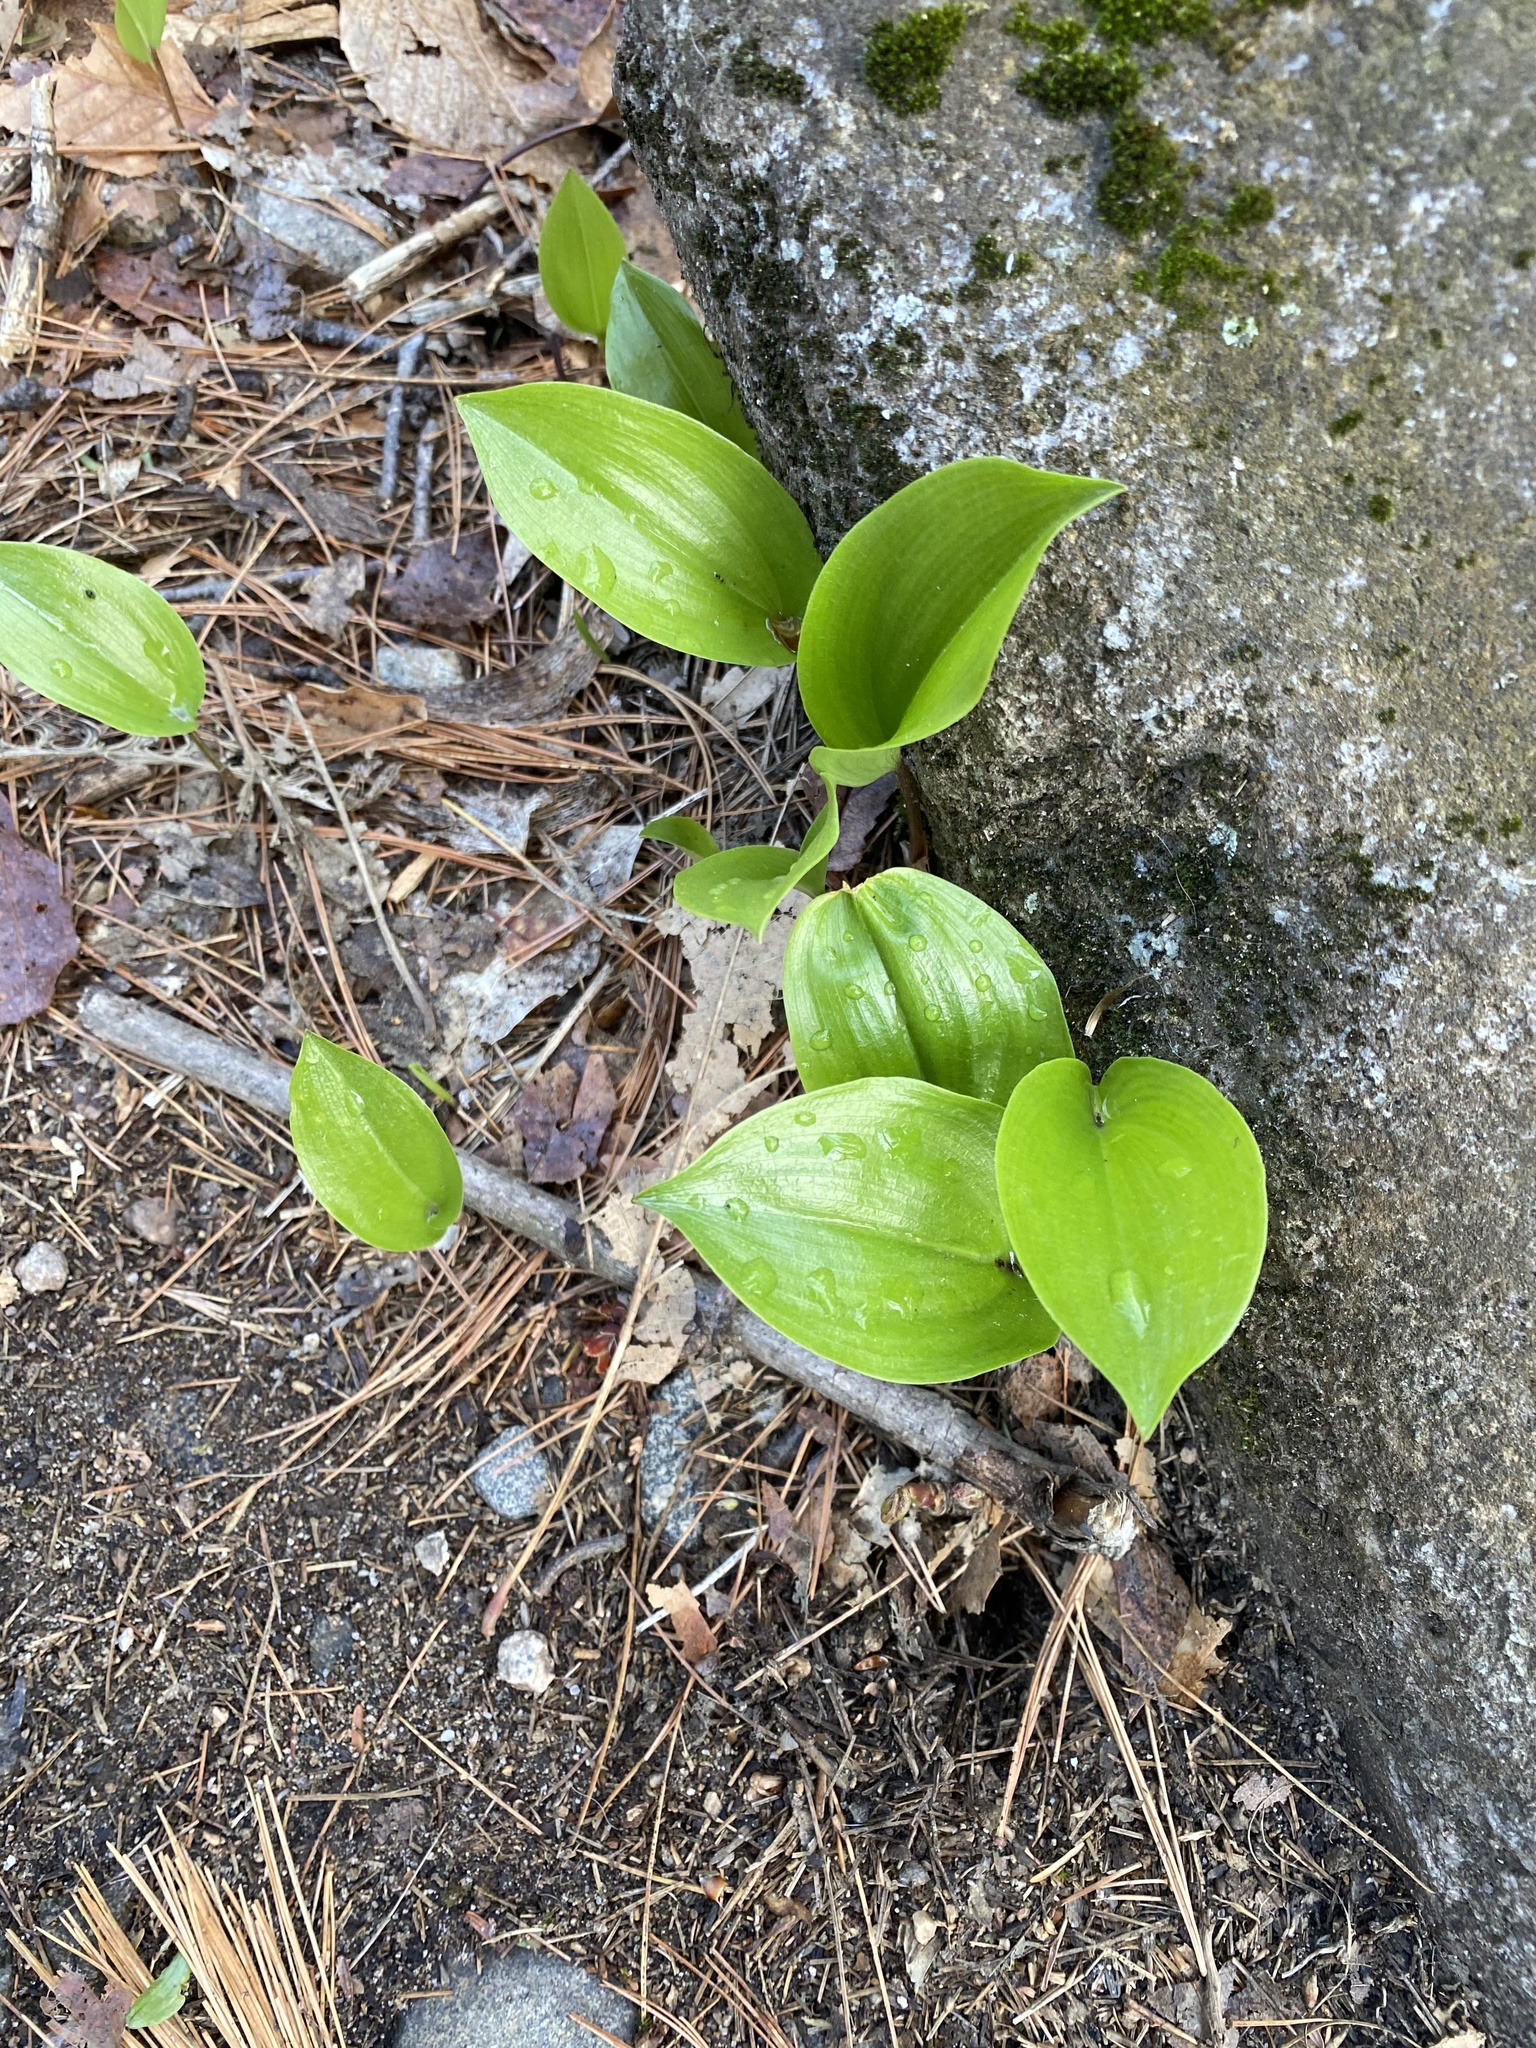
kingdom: Plantae
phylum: Tracheophyta
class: Liliopsida
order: Asparagales
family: Asparagaceae
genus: Maianthemum
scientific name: Maianthemum canadense
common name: False lily-of-the-valley
